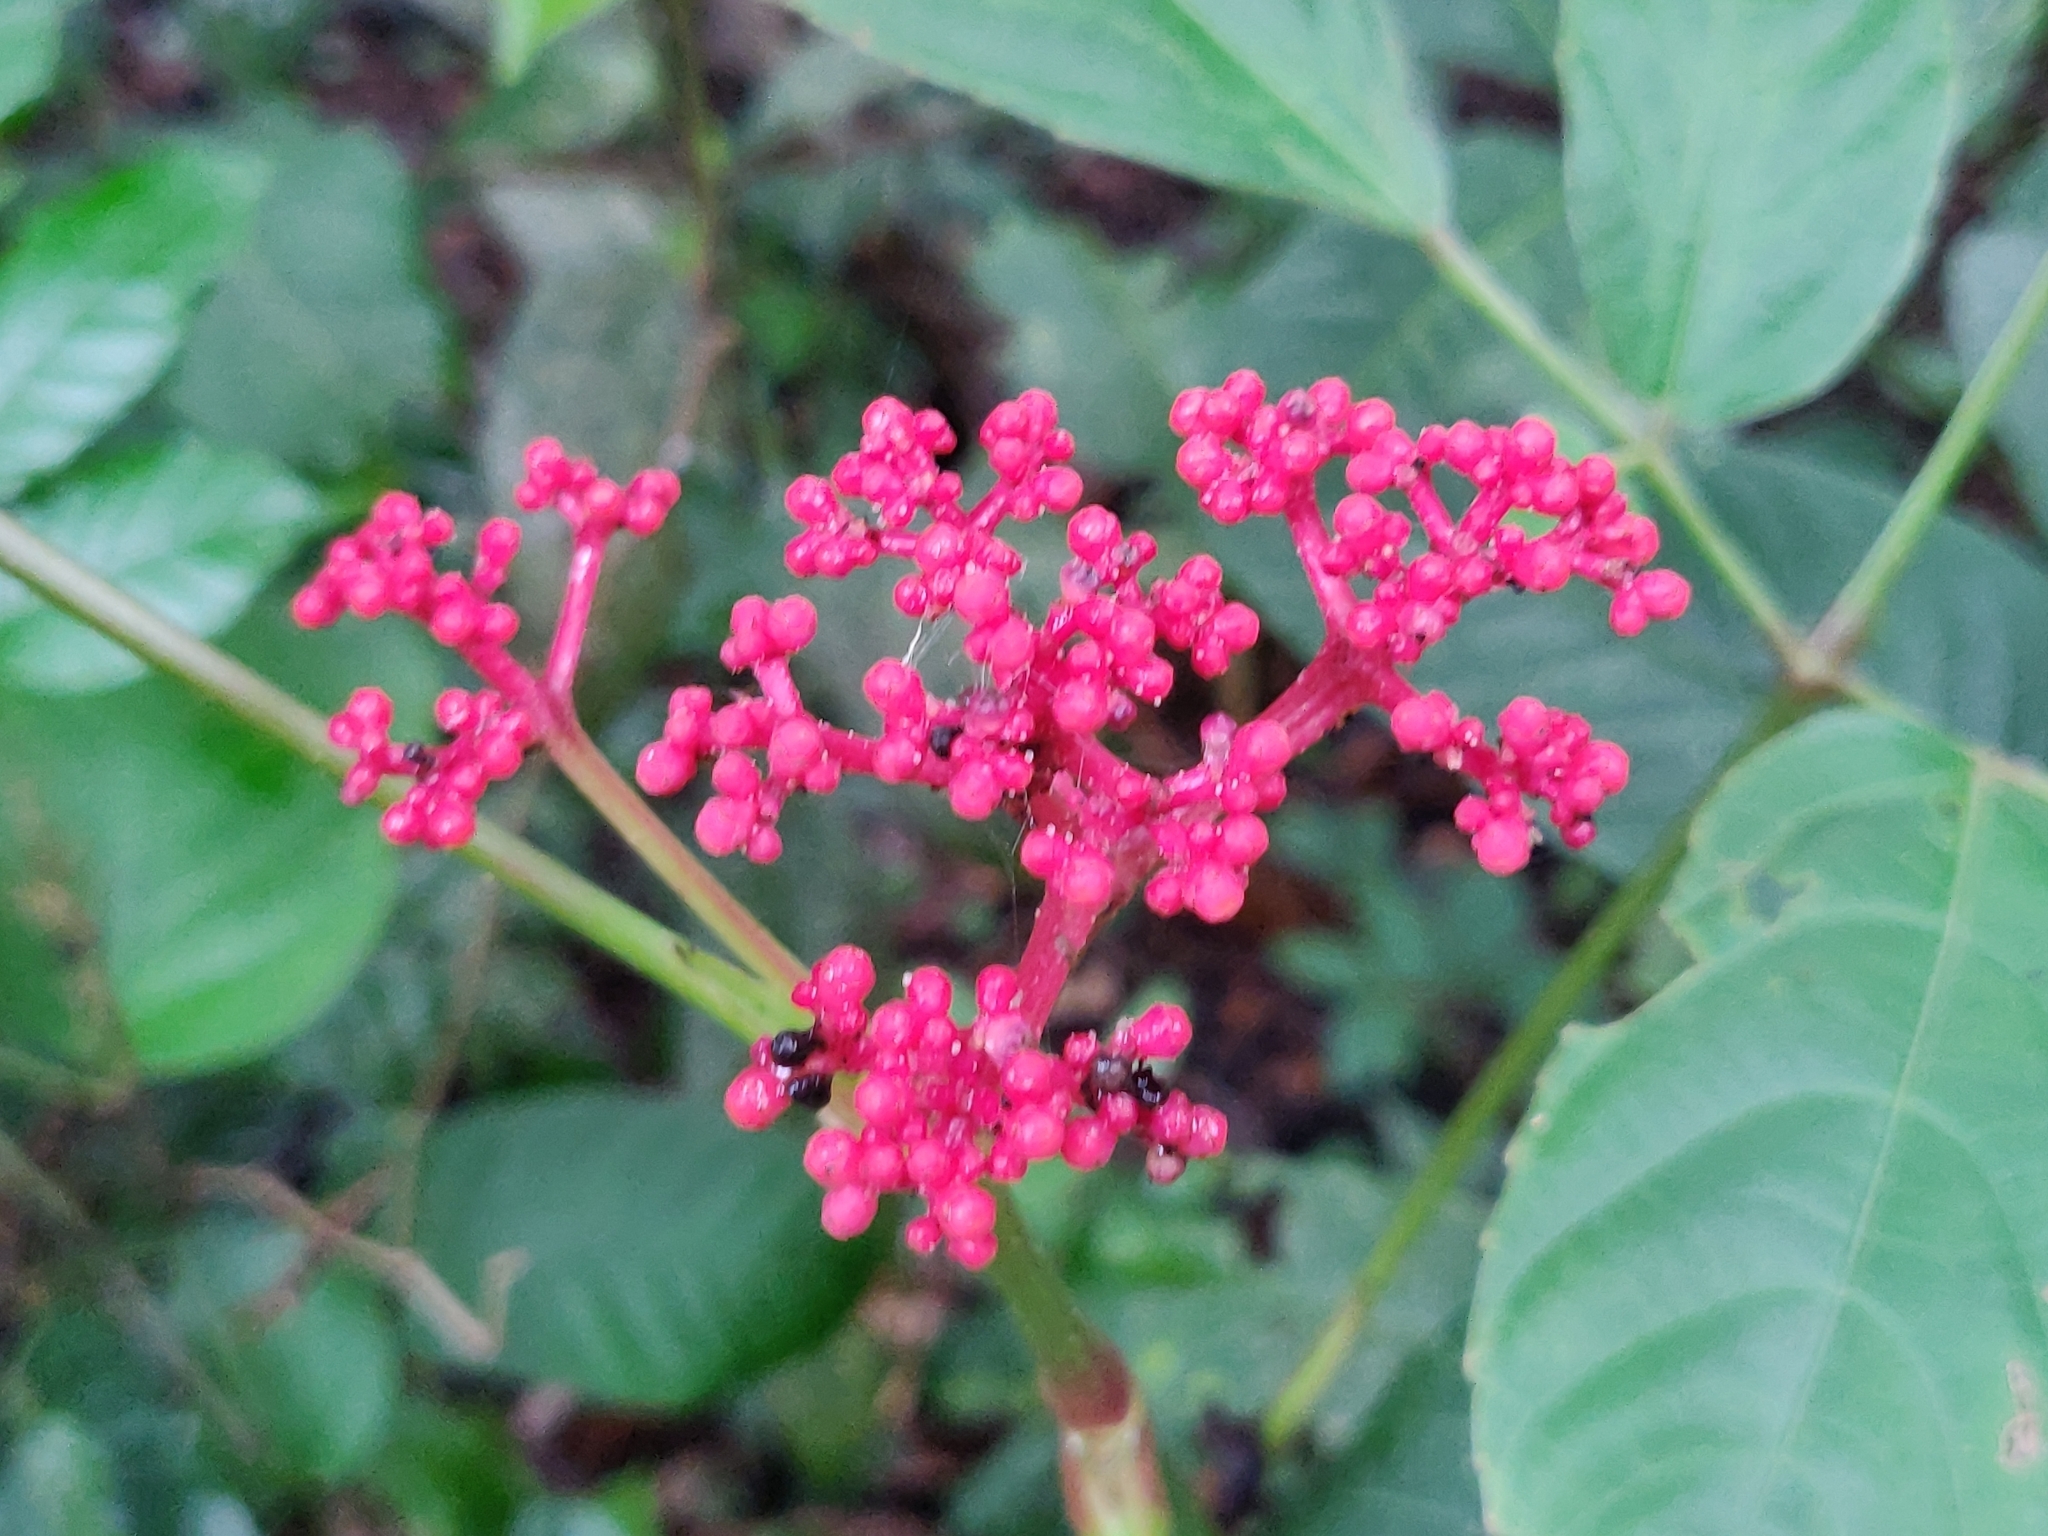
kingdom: Plantae
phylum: Tracheophyta
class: Magnoliopsida
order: Vitales
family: Vitaceae
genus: Leea
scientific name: Leea guineensis
